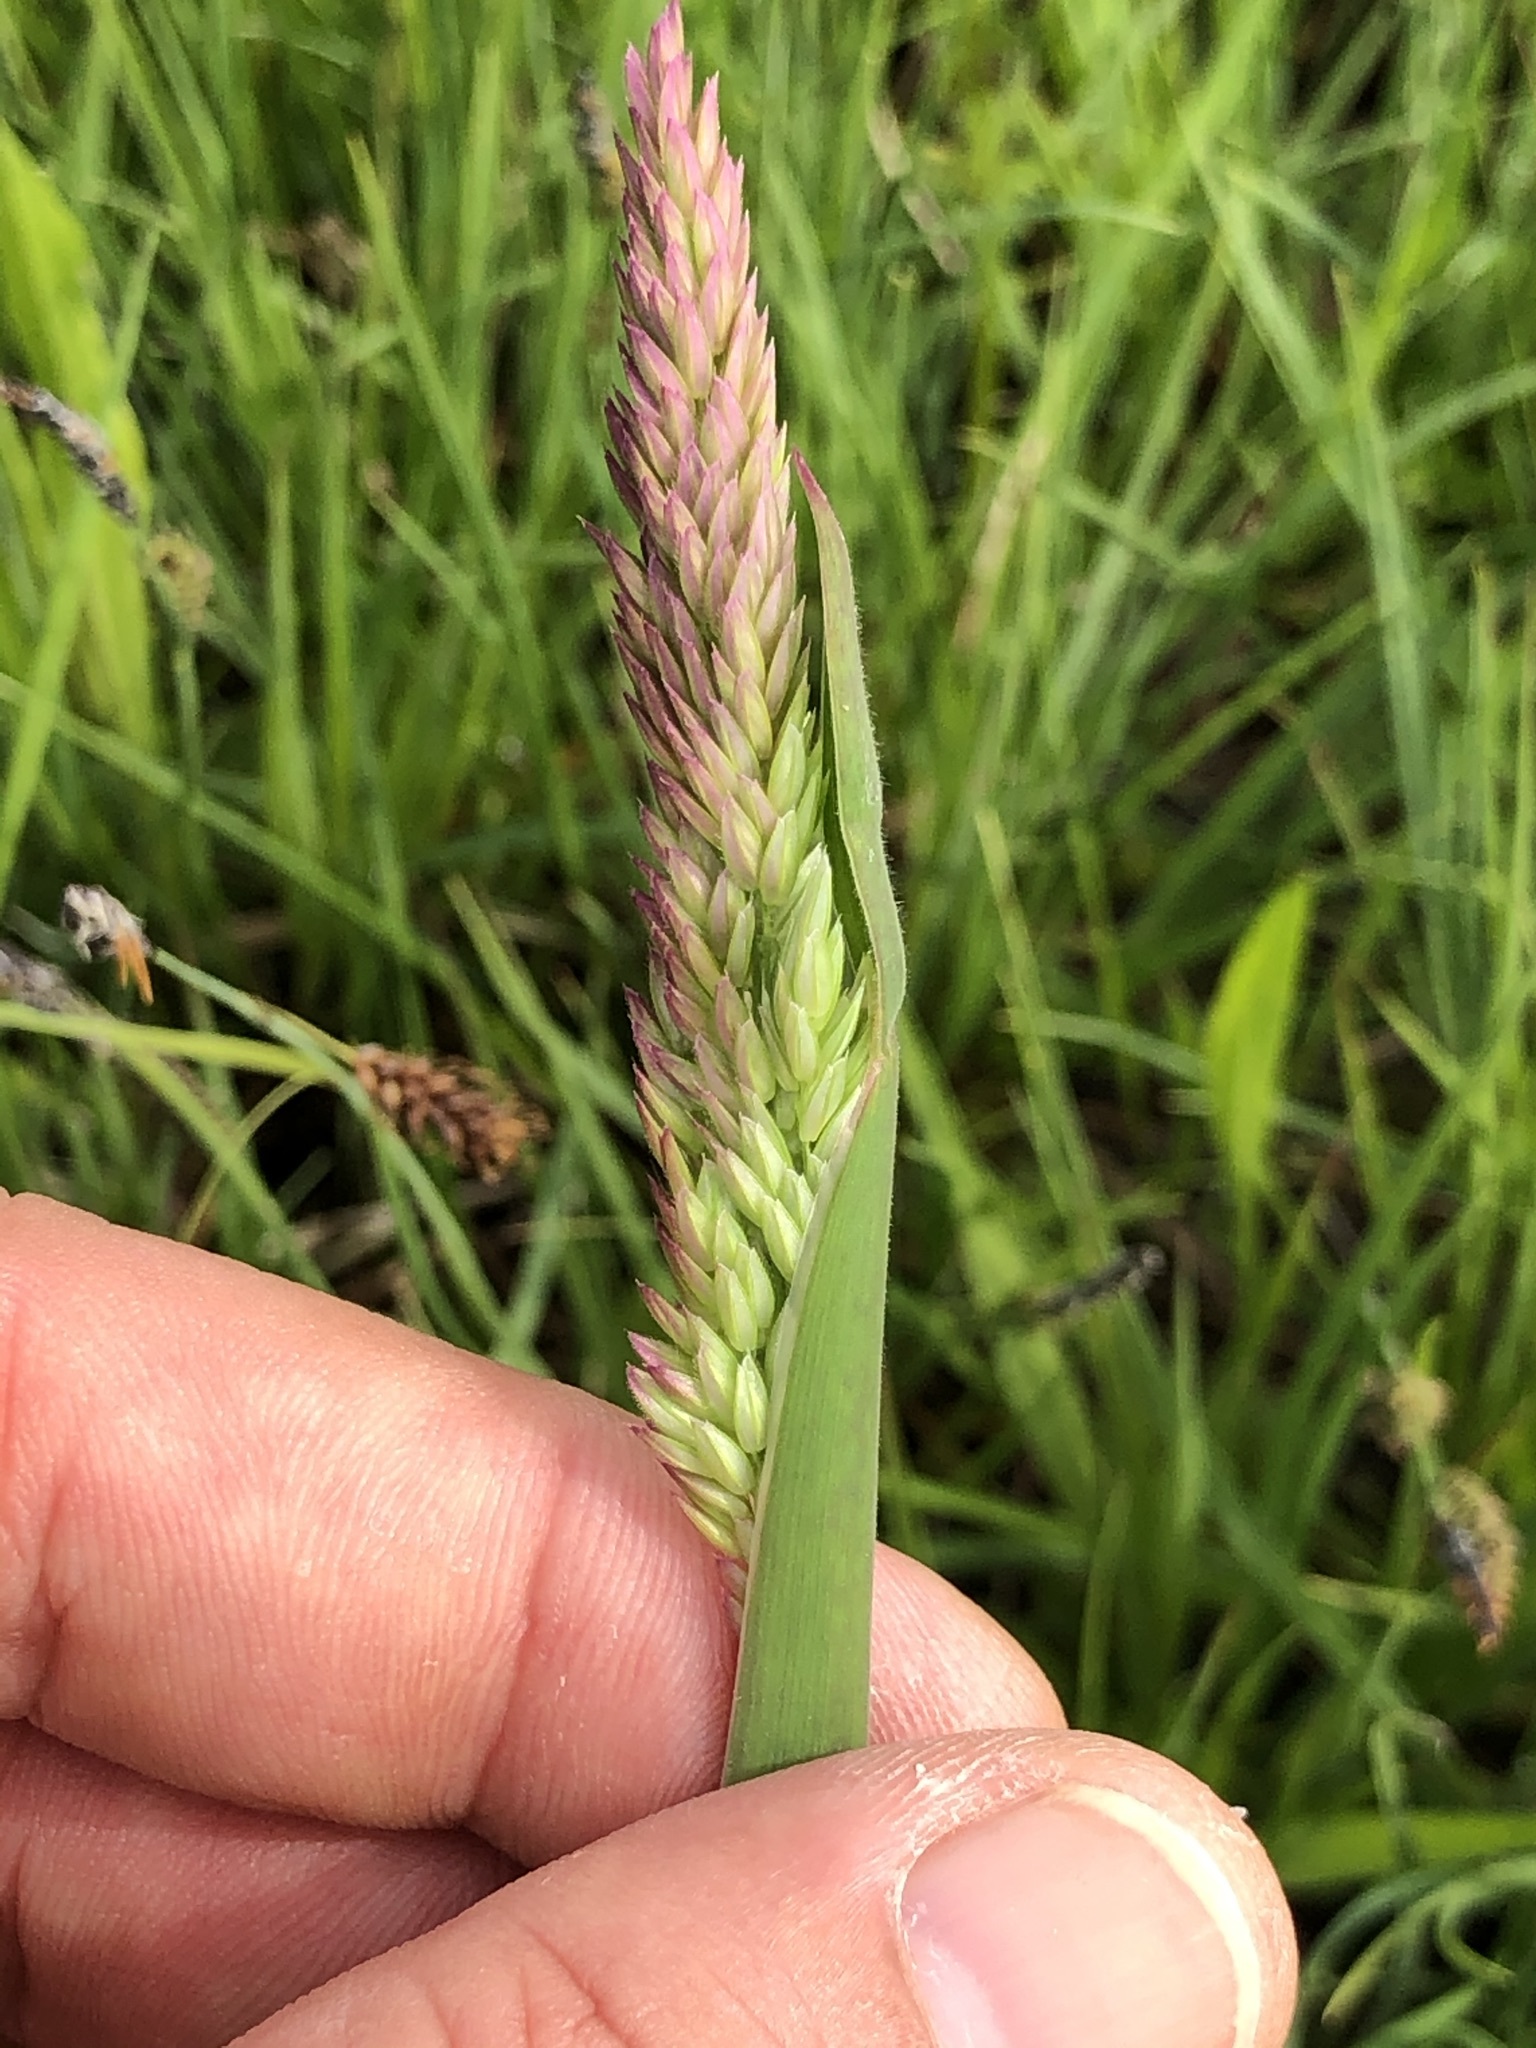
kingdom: Plantae
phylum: Tracheophyta
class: Liliopsida
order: Poales
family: Poaceae
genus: Holcus
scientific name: Holcus lanatus
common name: Yorkshire-fog
